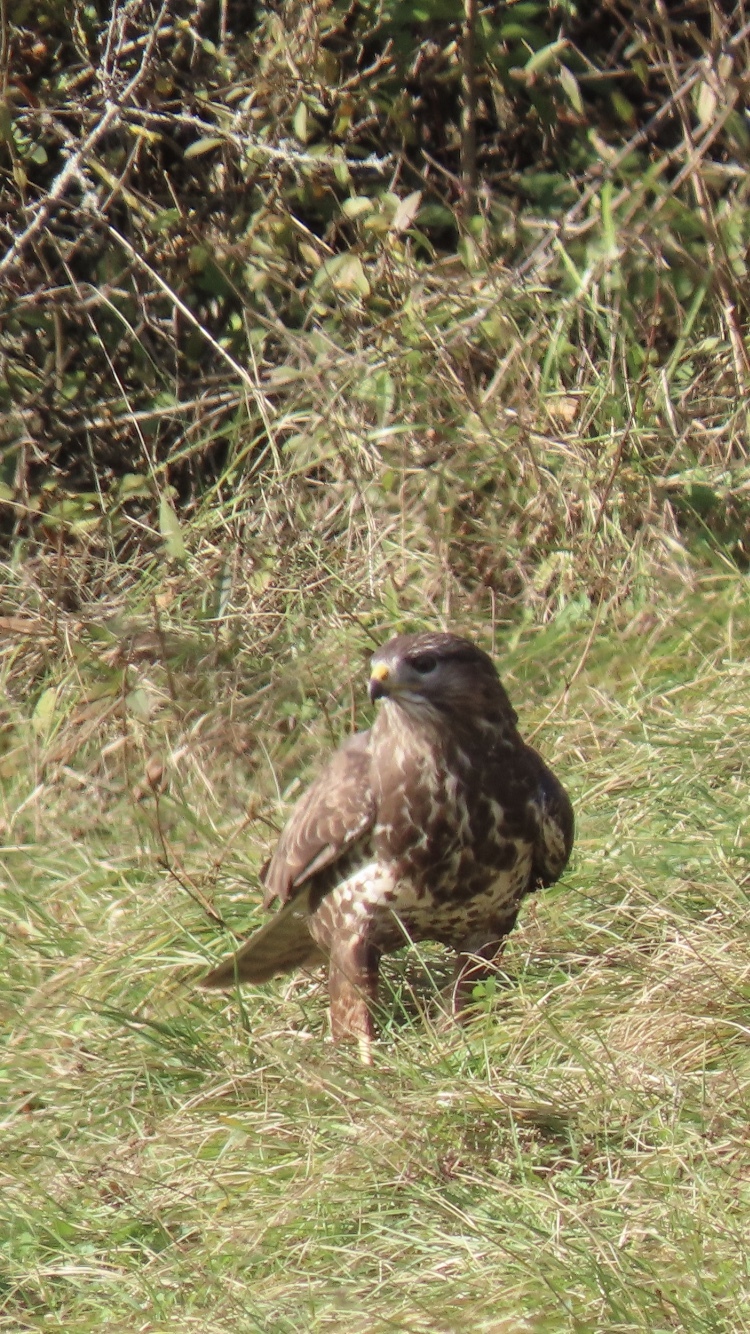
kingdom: Animalia
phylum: Chordata
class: Aves
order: Accipitriformes
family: Accipitridae
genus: Buteo
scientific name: Buteo buteo
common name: Common buzzard
